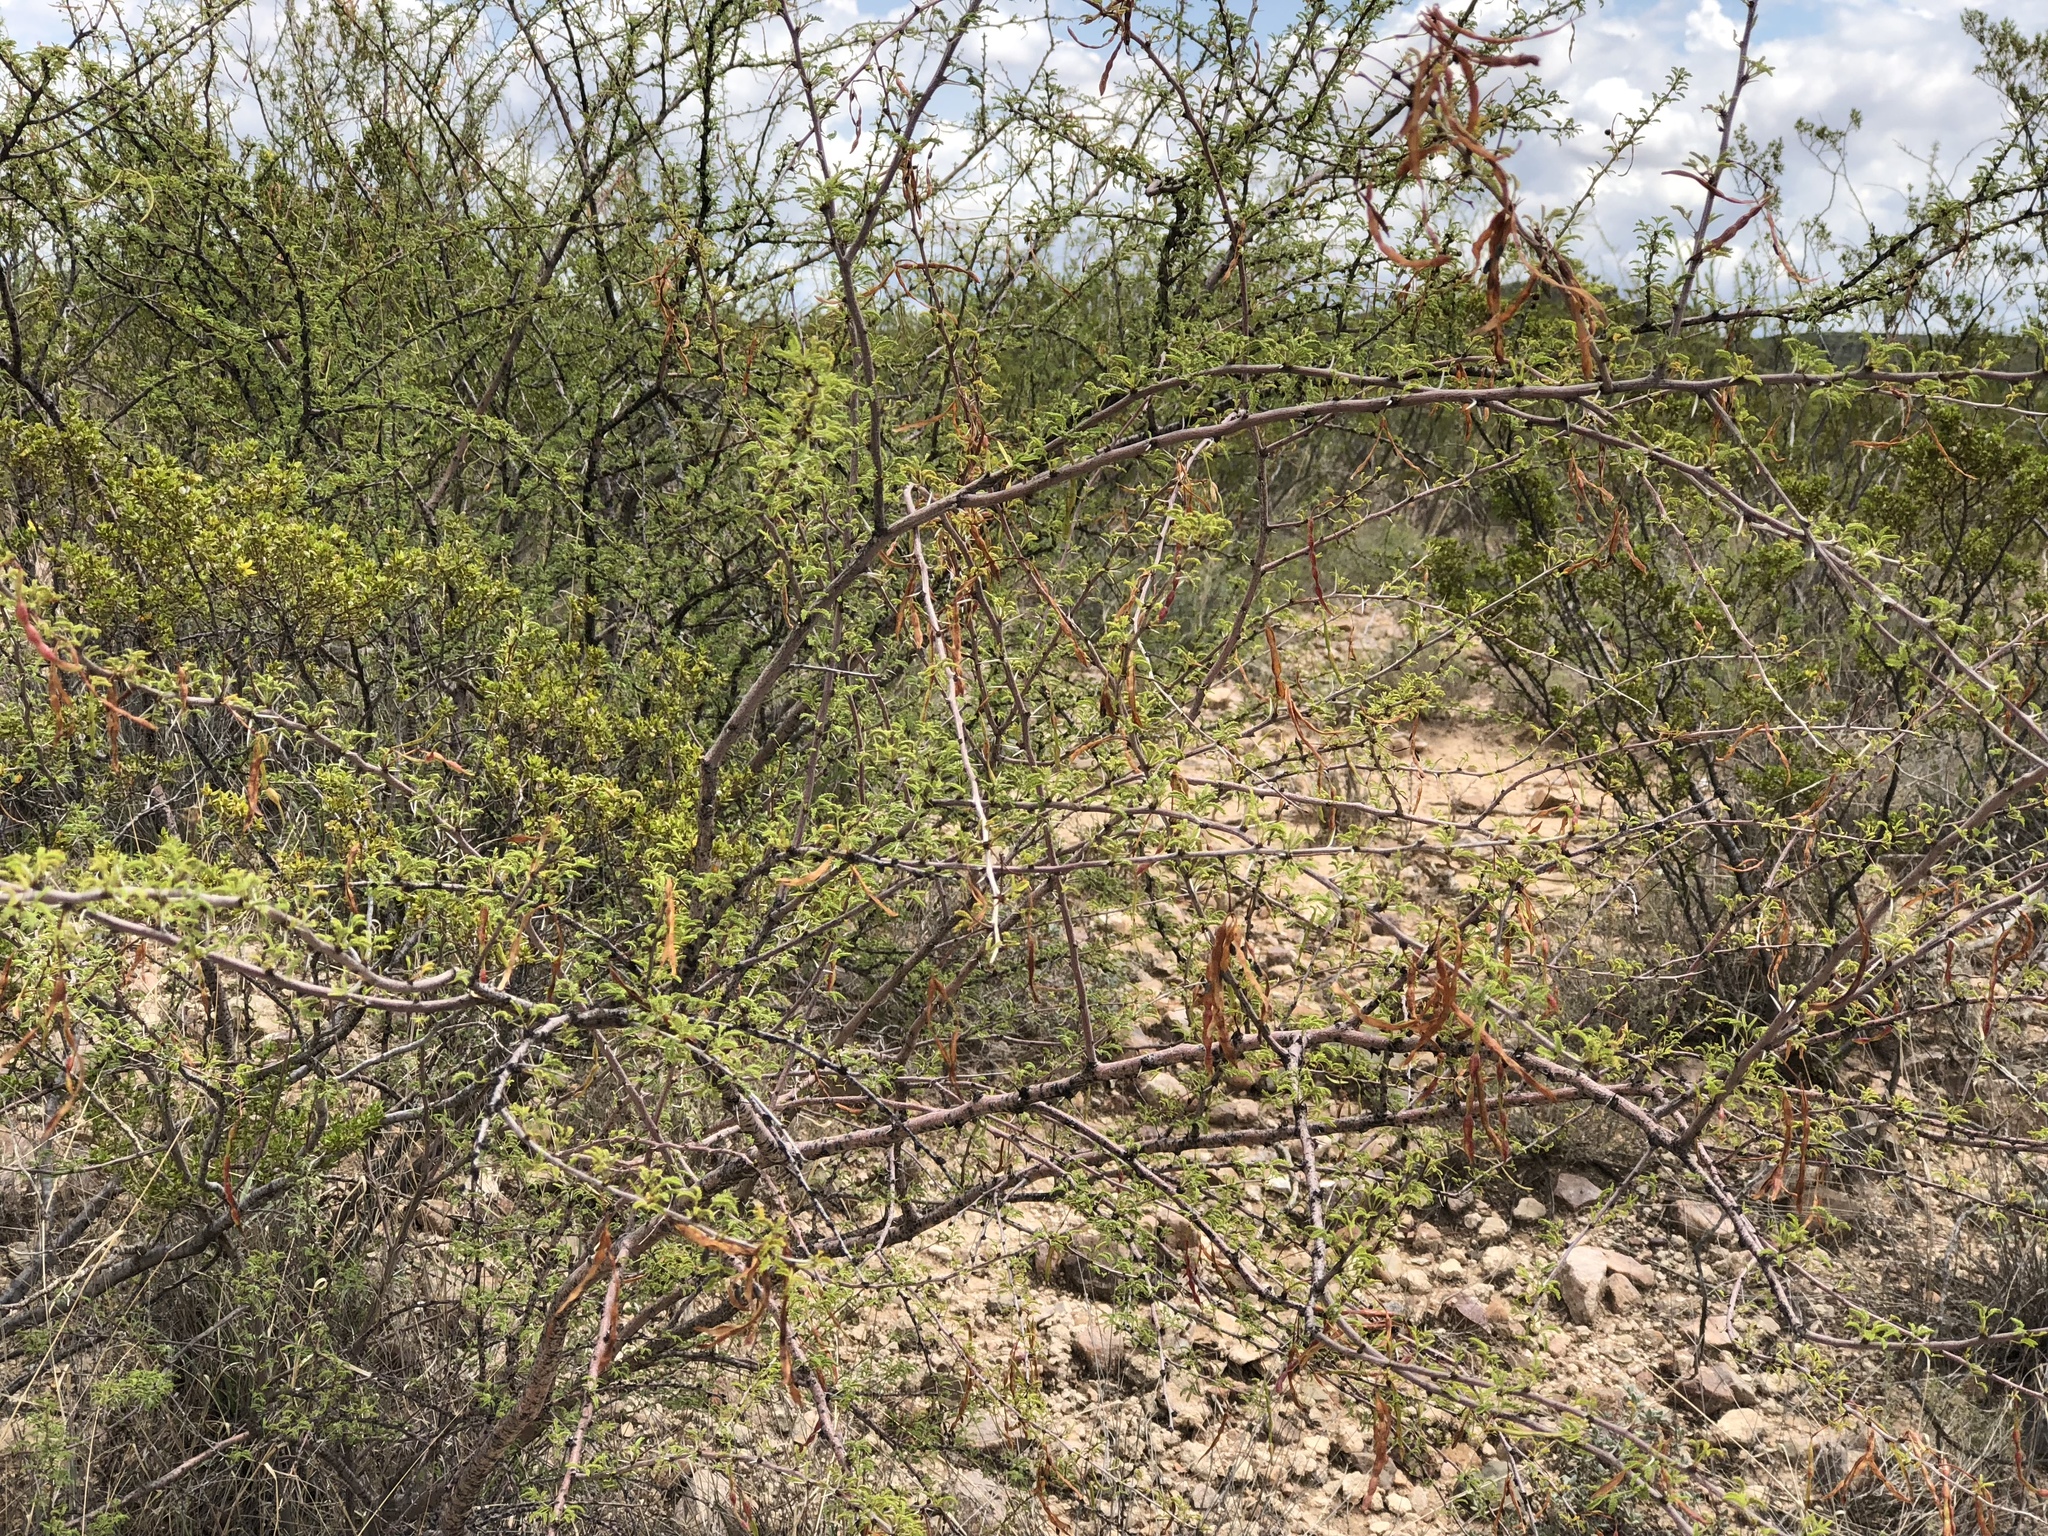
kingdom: Plantae
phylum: Tracheophyta
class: Magnoliopsida
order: Fabales
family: Fabaceae
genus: Vachellia
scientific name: Vachellia constricta
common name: Mescat acacia
